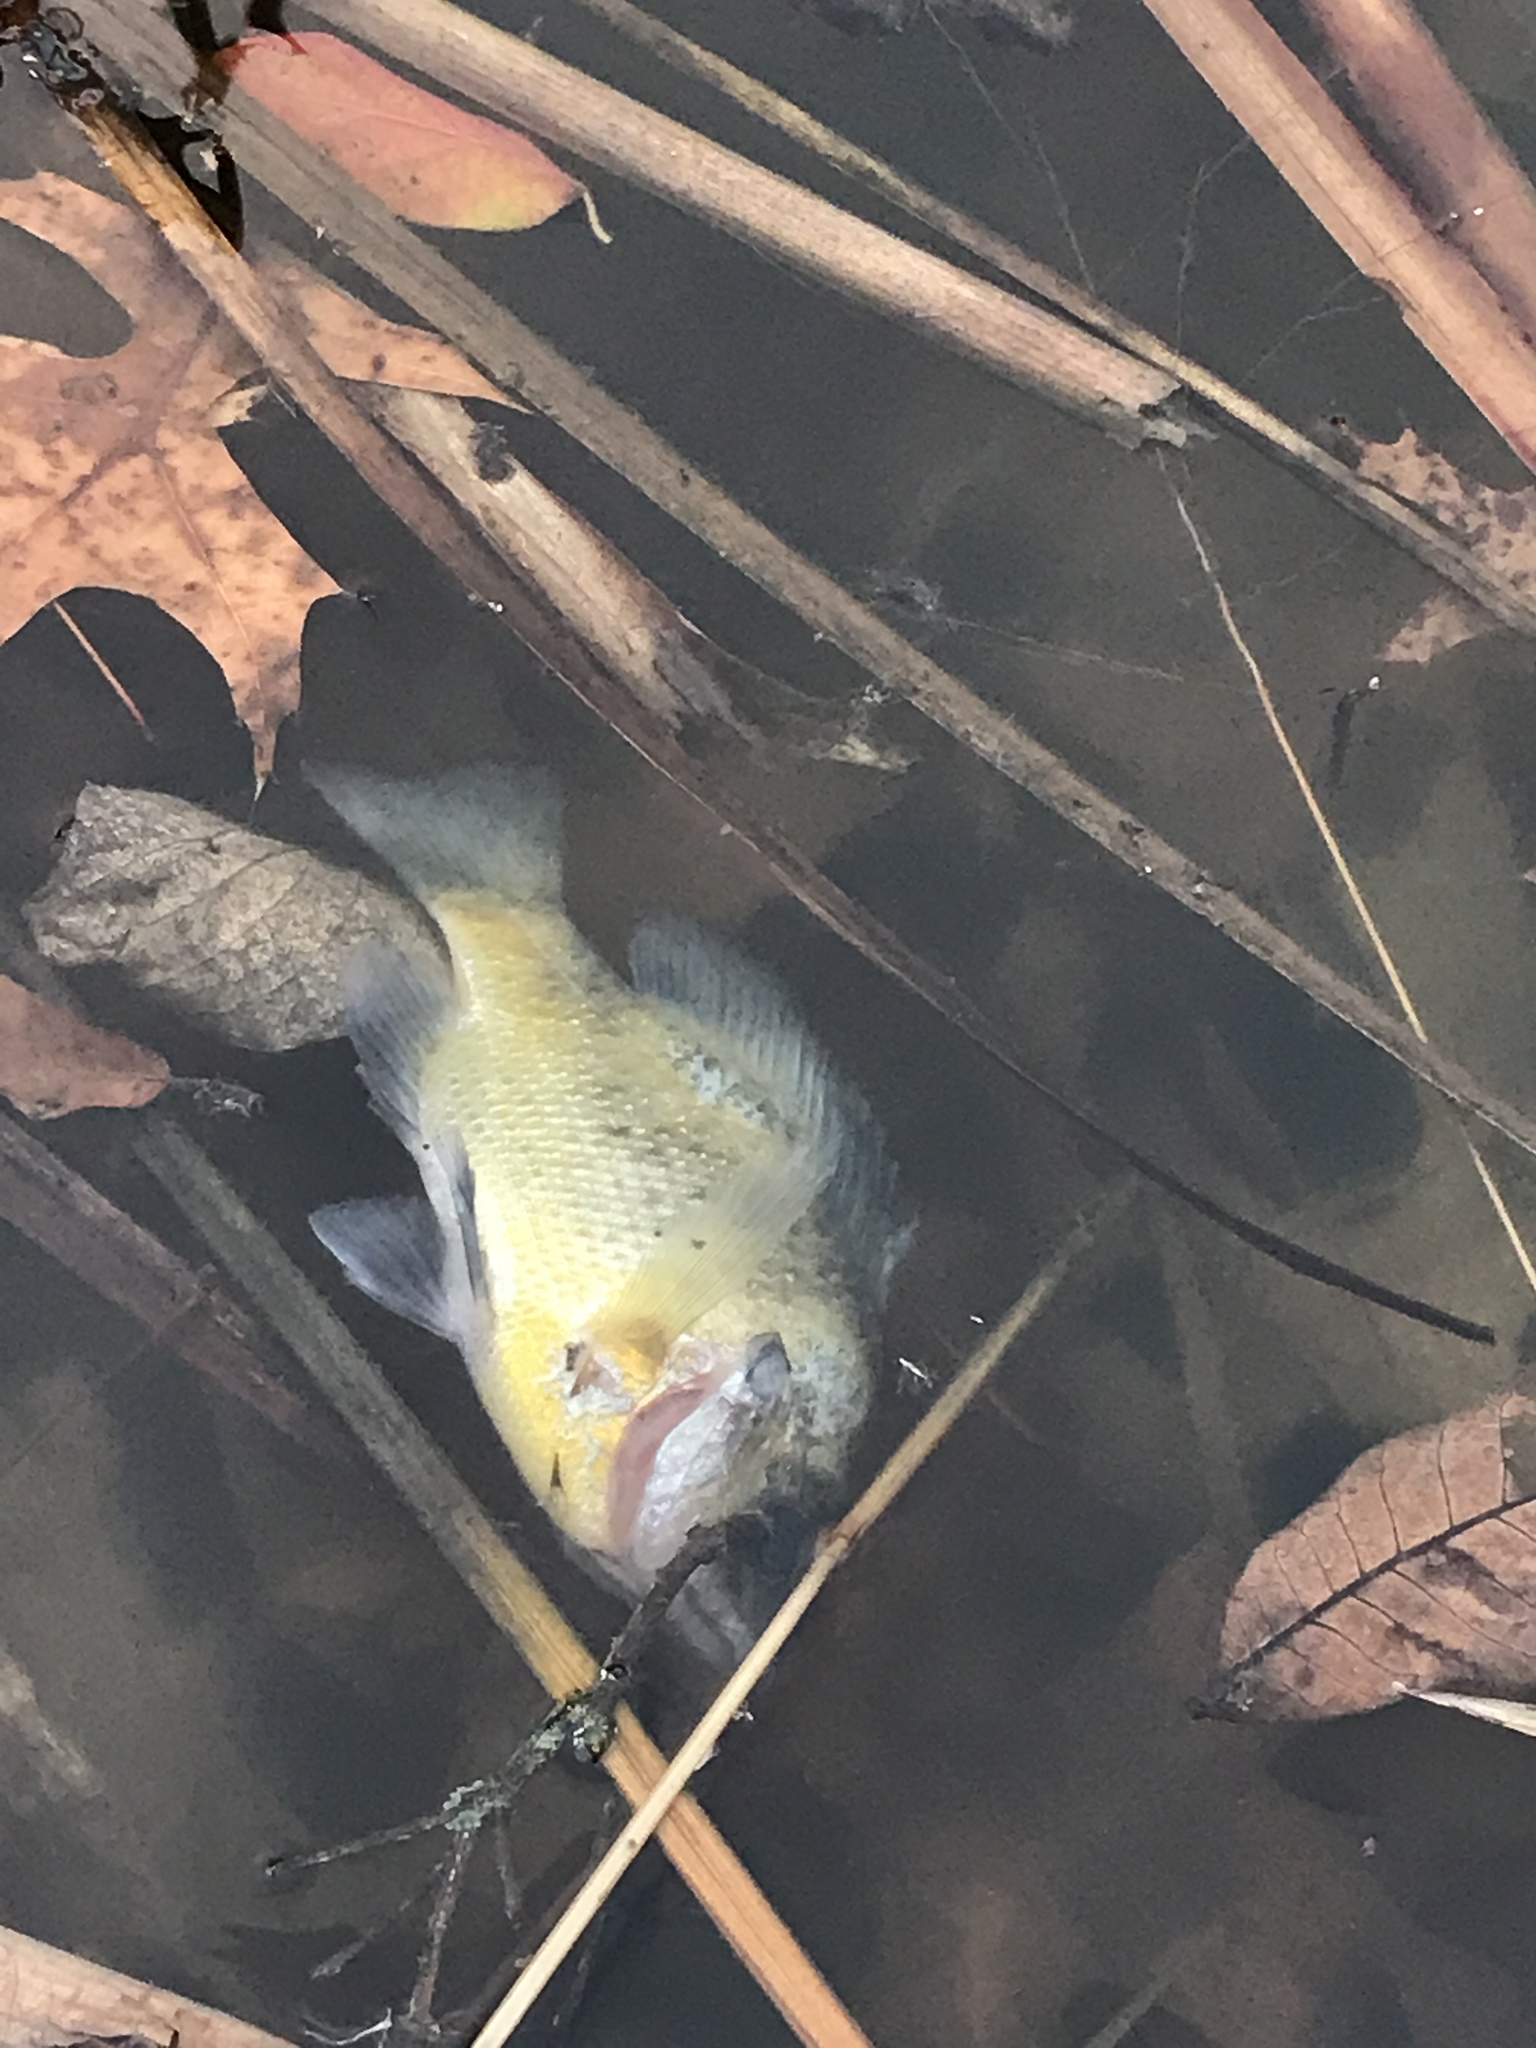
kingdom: Animalia
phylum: Chordata
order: Perciformes
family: Centrarchidae
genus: Lepomis
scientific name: Lepomis macrochirus
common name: Bluegill
